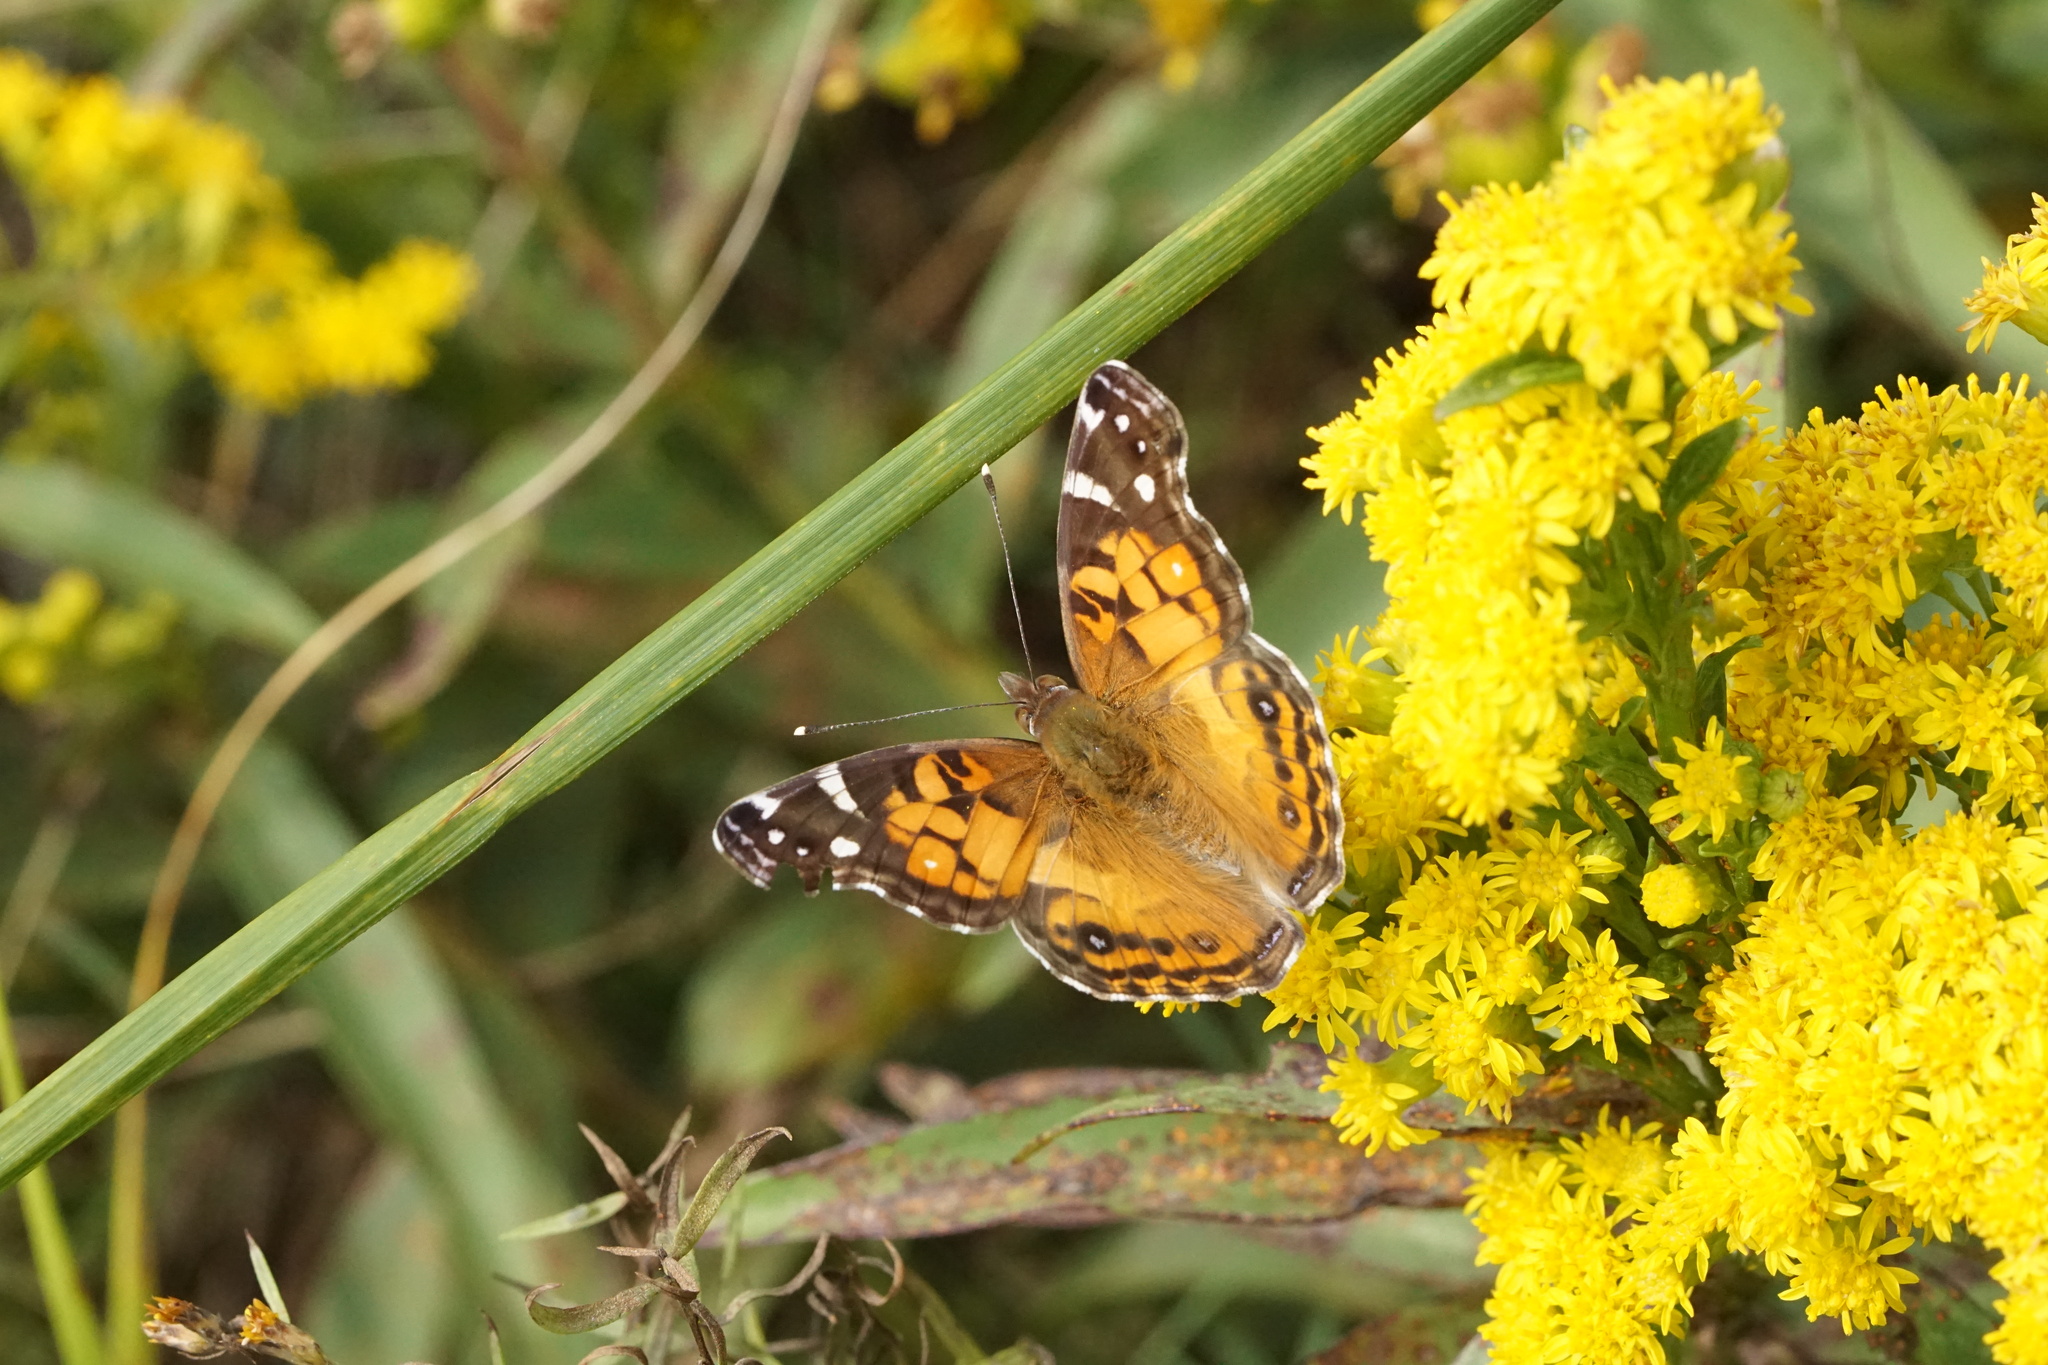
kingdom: Animalia
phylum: Arthropoda
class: Insecta
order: Lepidoptera
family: Nymphalidae
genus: Vanessa
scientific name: Vanessa virginiensis
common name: American lady
